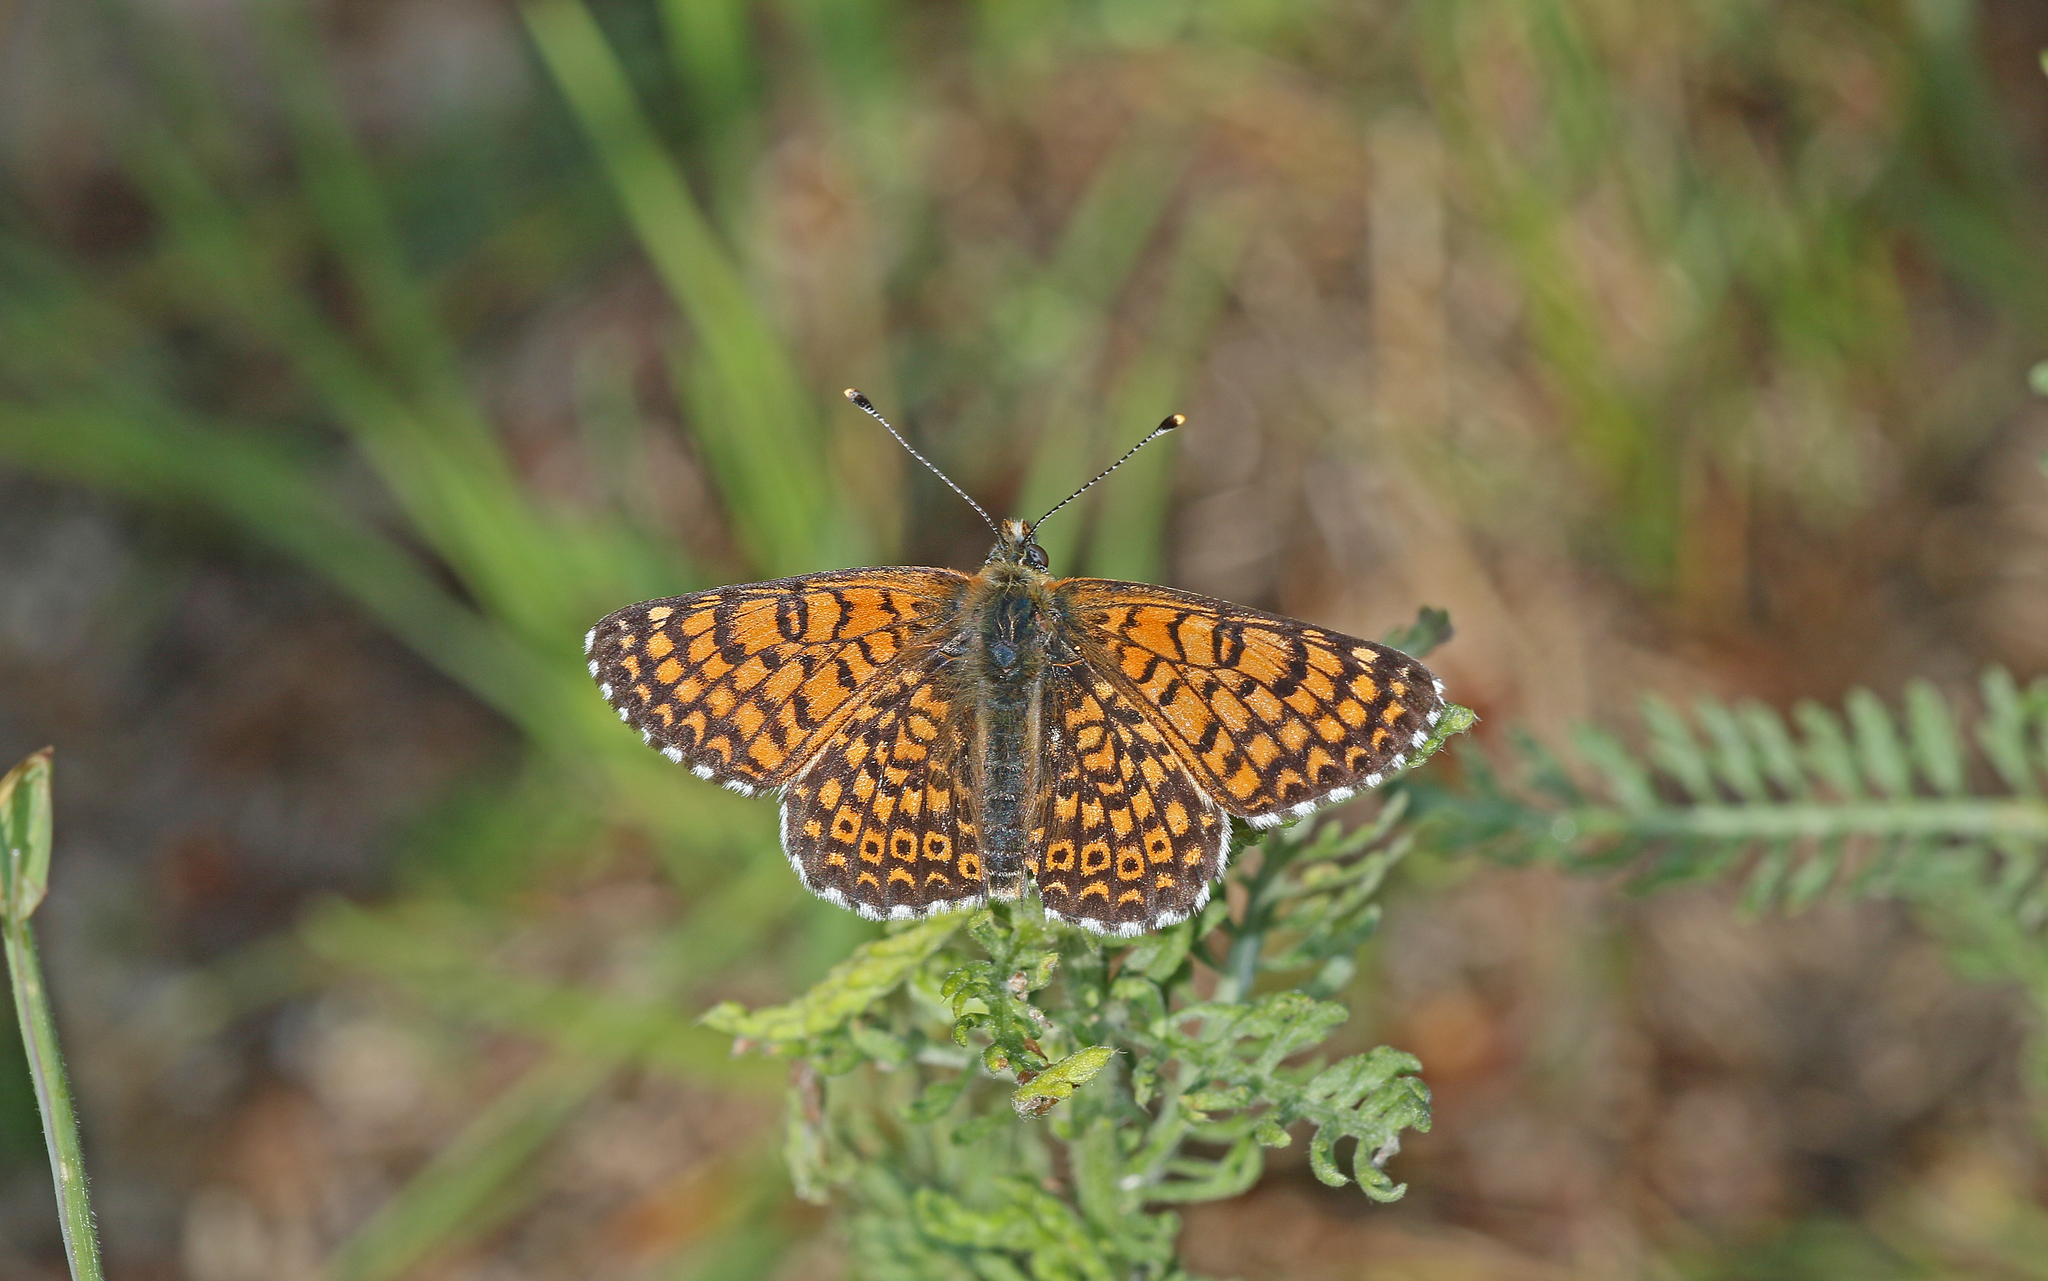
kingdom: Animalia
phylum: Arthropoda
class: Insecta
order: Lepidoptera
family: Nymphalidae
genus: Melitaea
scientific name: Melitaea cinxia
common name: Glanville fritillary
